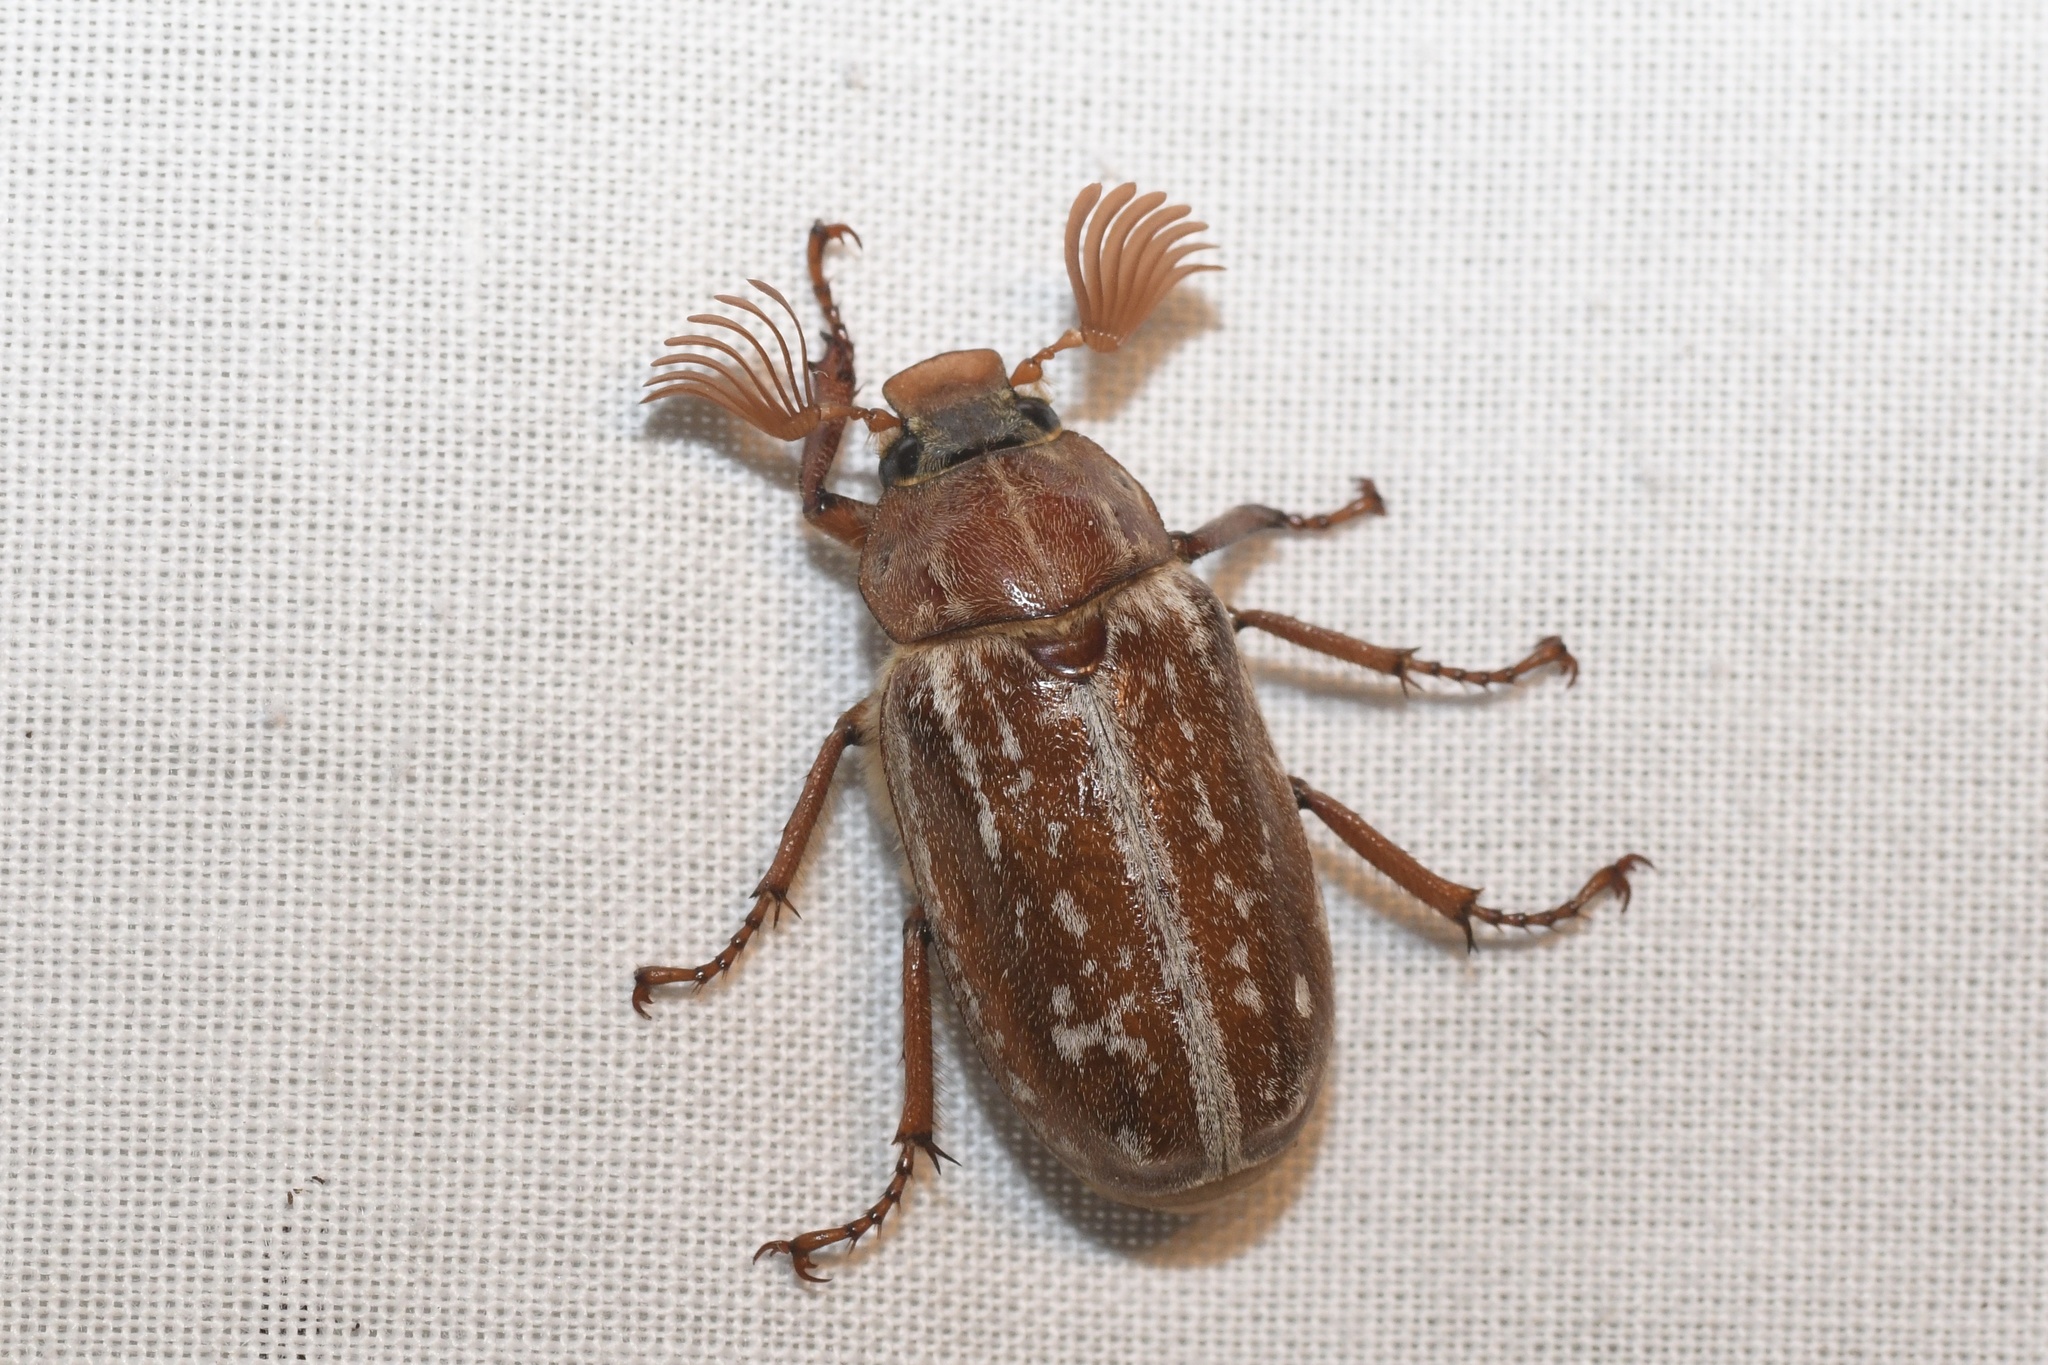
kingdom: Animalia
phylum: Arthropoda
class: Insecta
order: Coleoptera
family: Scarabaeidae
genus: Polyphylla
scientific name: Polyphylla variolosa
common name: Variegated june beetle
